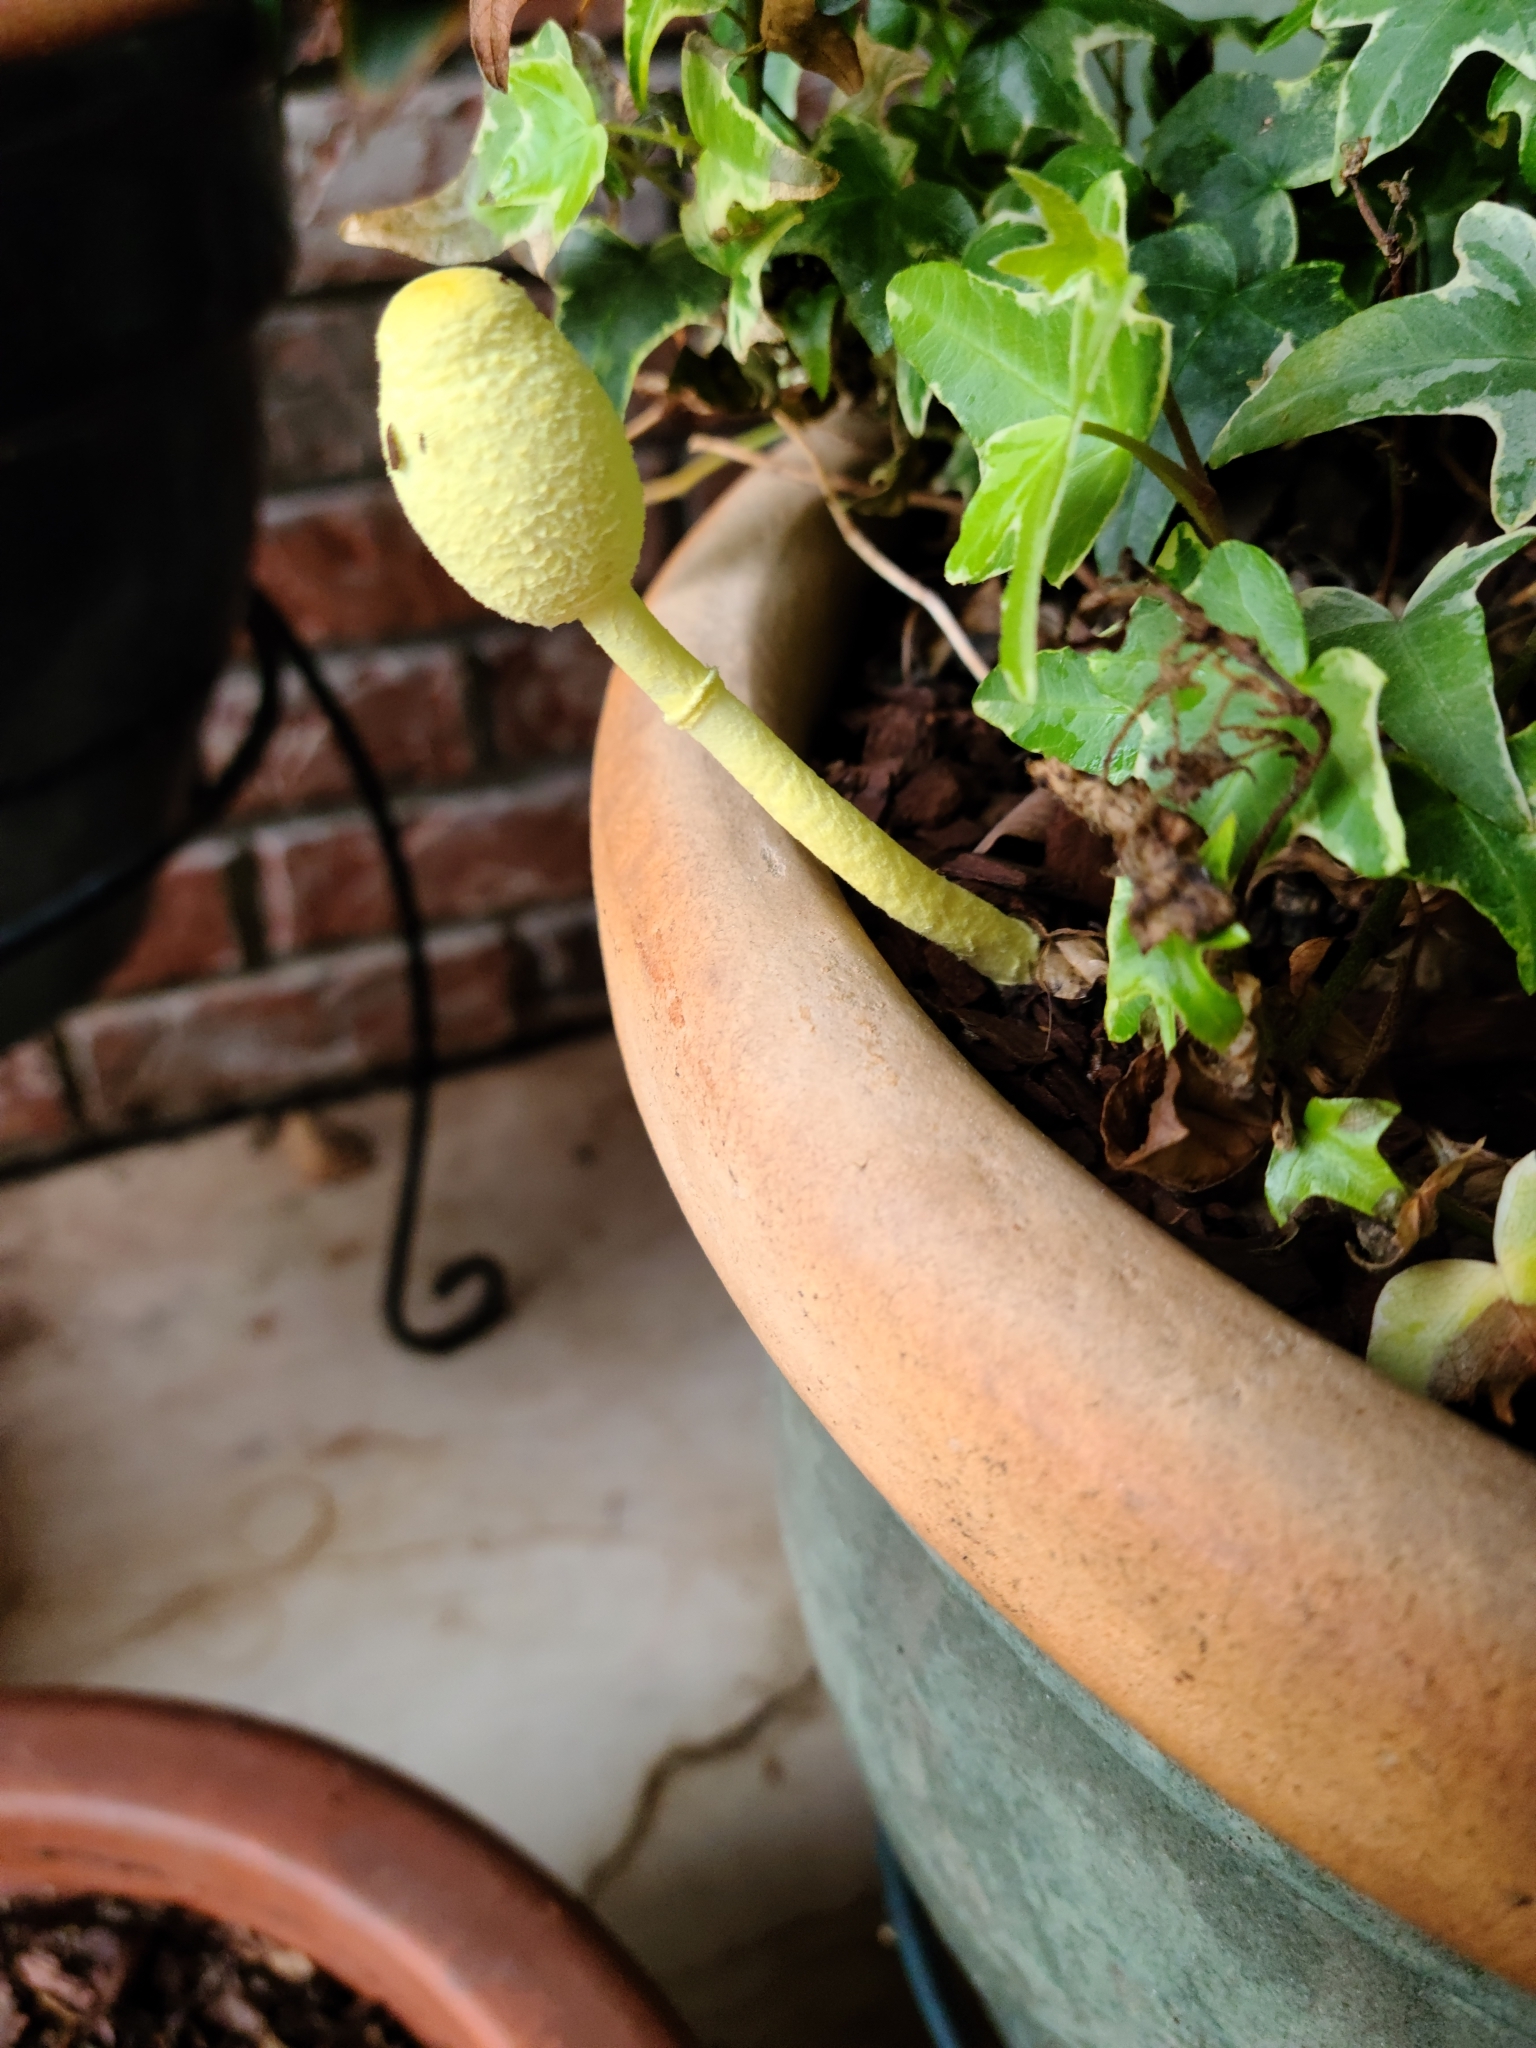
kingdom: Fungi
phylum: Basidiomycota
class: Agaricomycetes
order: Agaricales
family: Agaricaceae
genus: Leucocoprinus
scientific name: Leucocoprinus birnbaumii
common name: Plantpot dapperling
